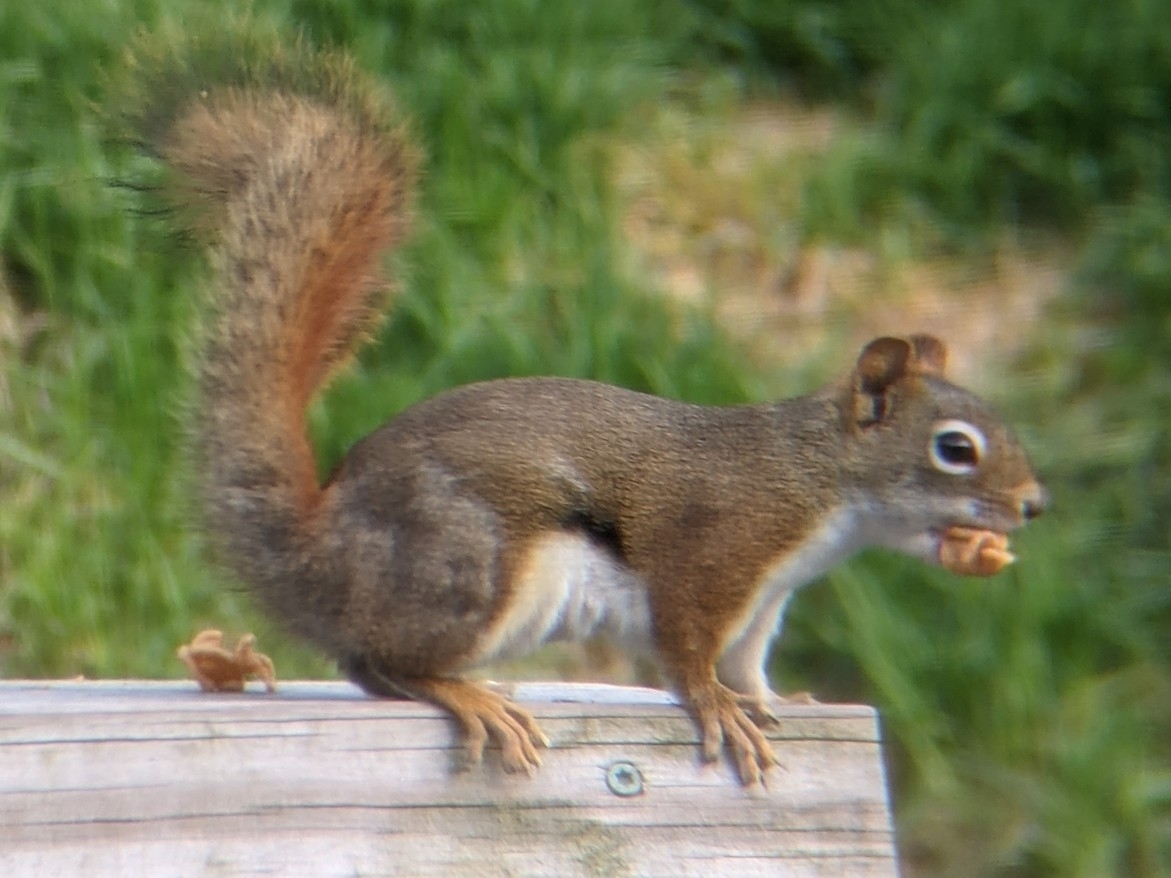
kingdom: Animalia
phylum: Chordata
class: Mammalia
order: Rodentia
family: Sciuridae
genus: Tamiasciurus
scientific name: Tamiasciurus hudsonicus
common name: Red squirrel
